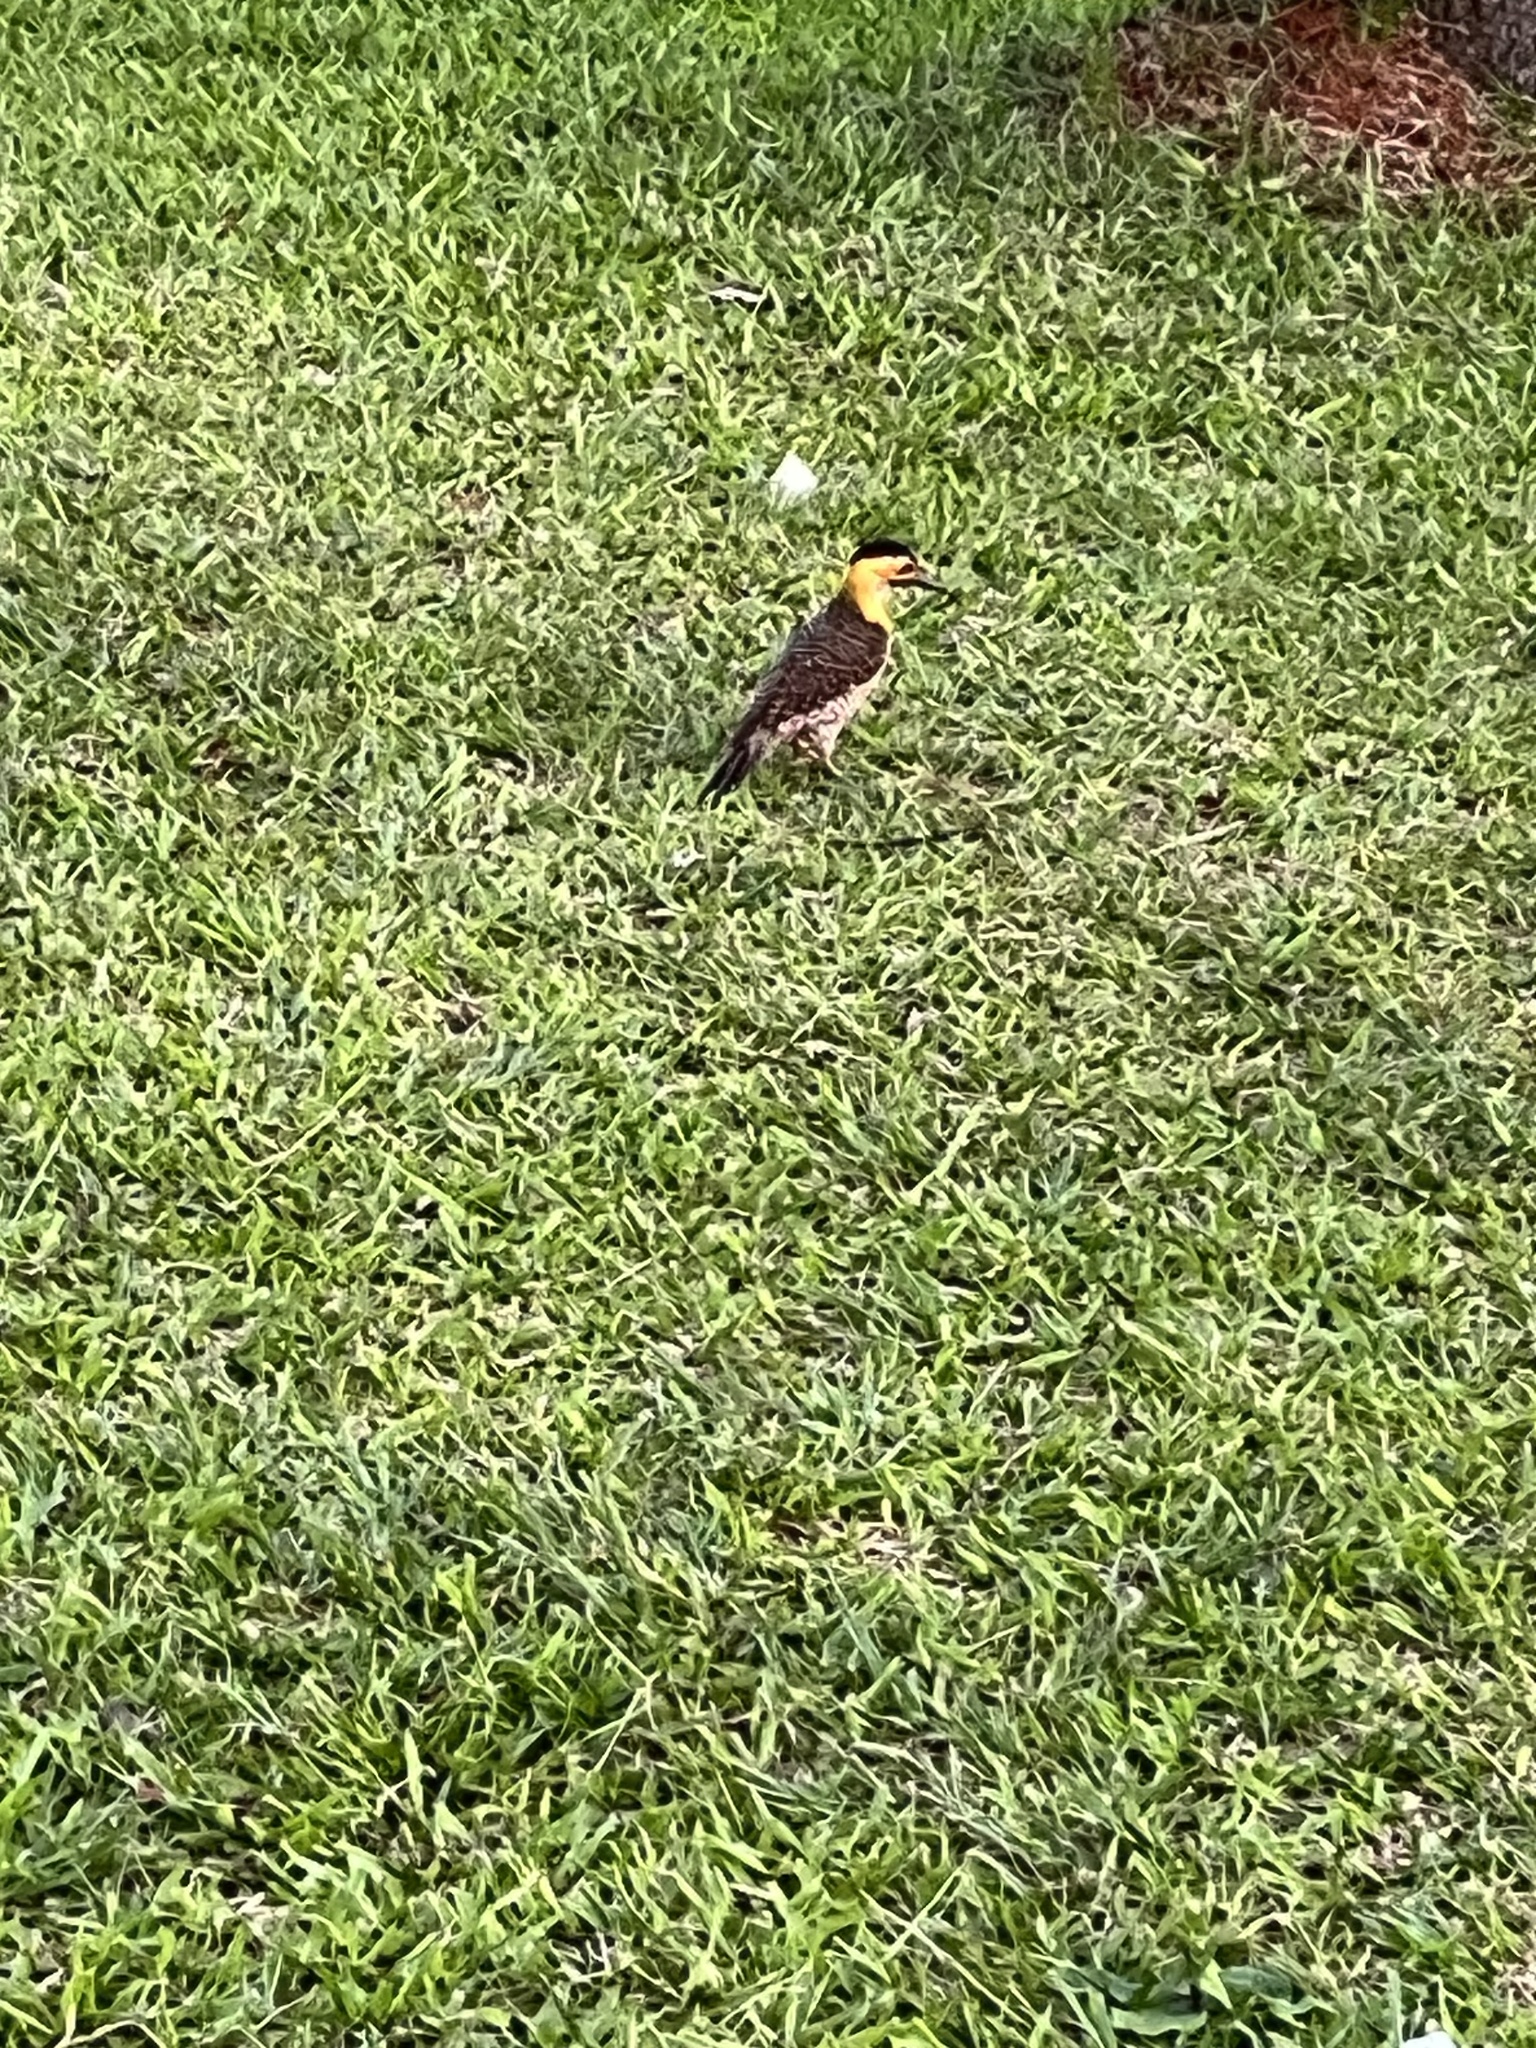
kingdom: Animalia
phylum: Chordata
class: Aves
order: Piciformes
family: Picidae
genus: Colaptes
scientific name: Colaptes campestris
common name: Campo flicker
